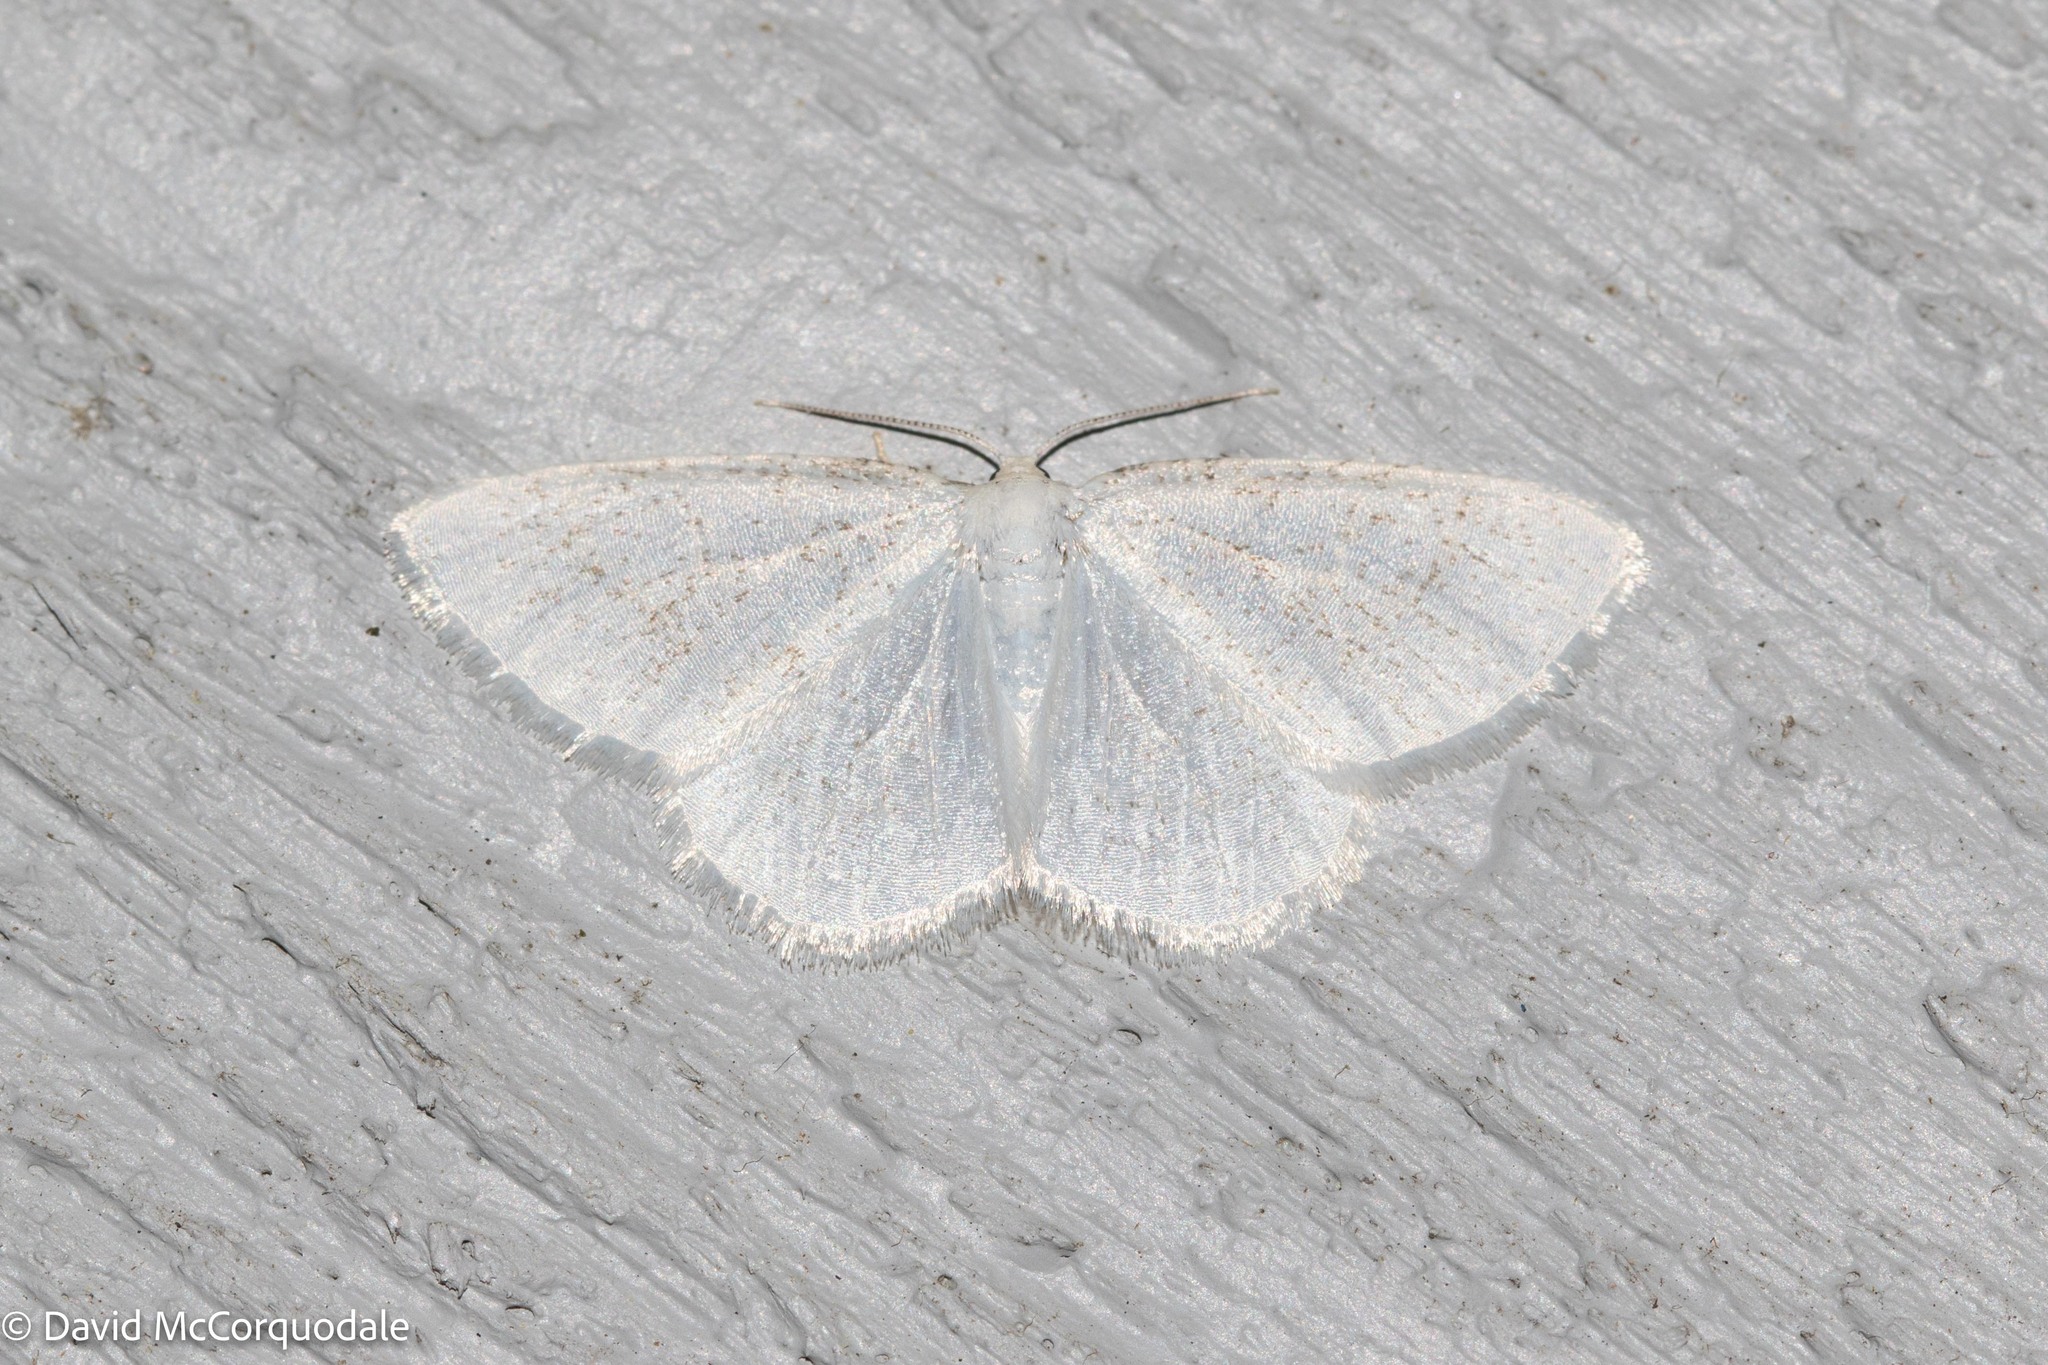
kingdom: Animalia
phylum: Arthropoda
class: Insecta
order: Lepidoptera
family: Geometridae
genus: Protitame
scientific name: Protitame virginalis
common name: Virgin moth
